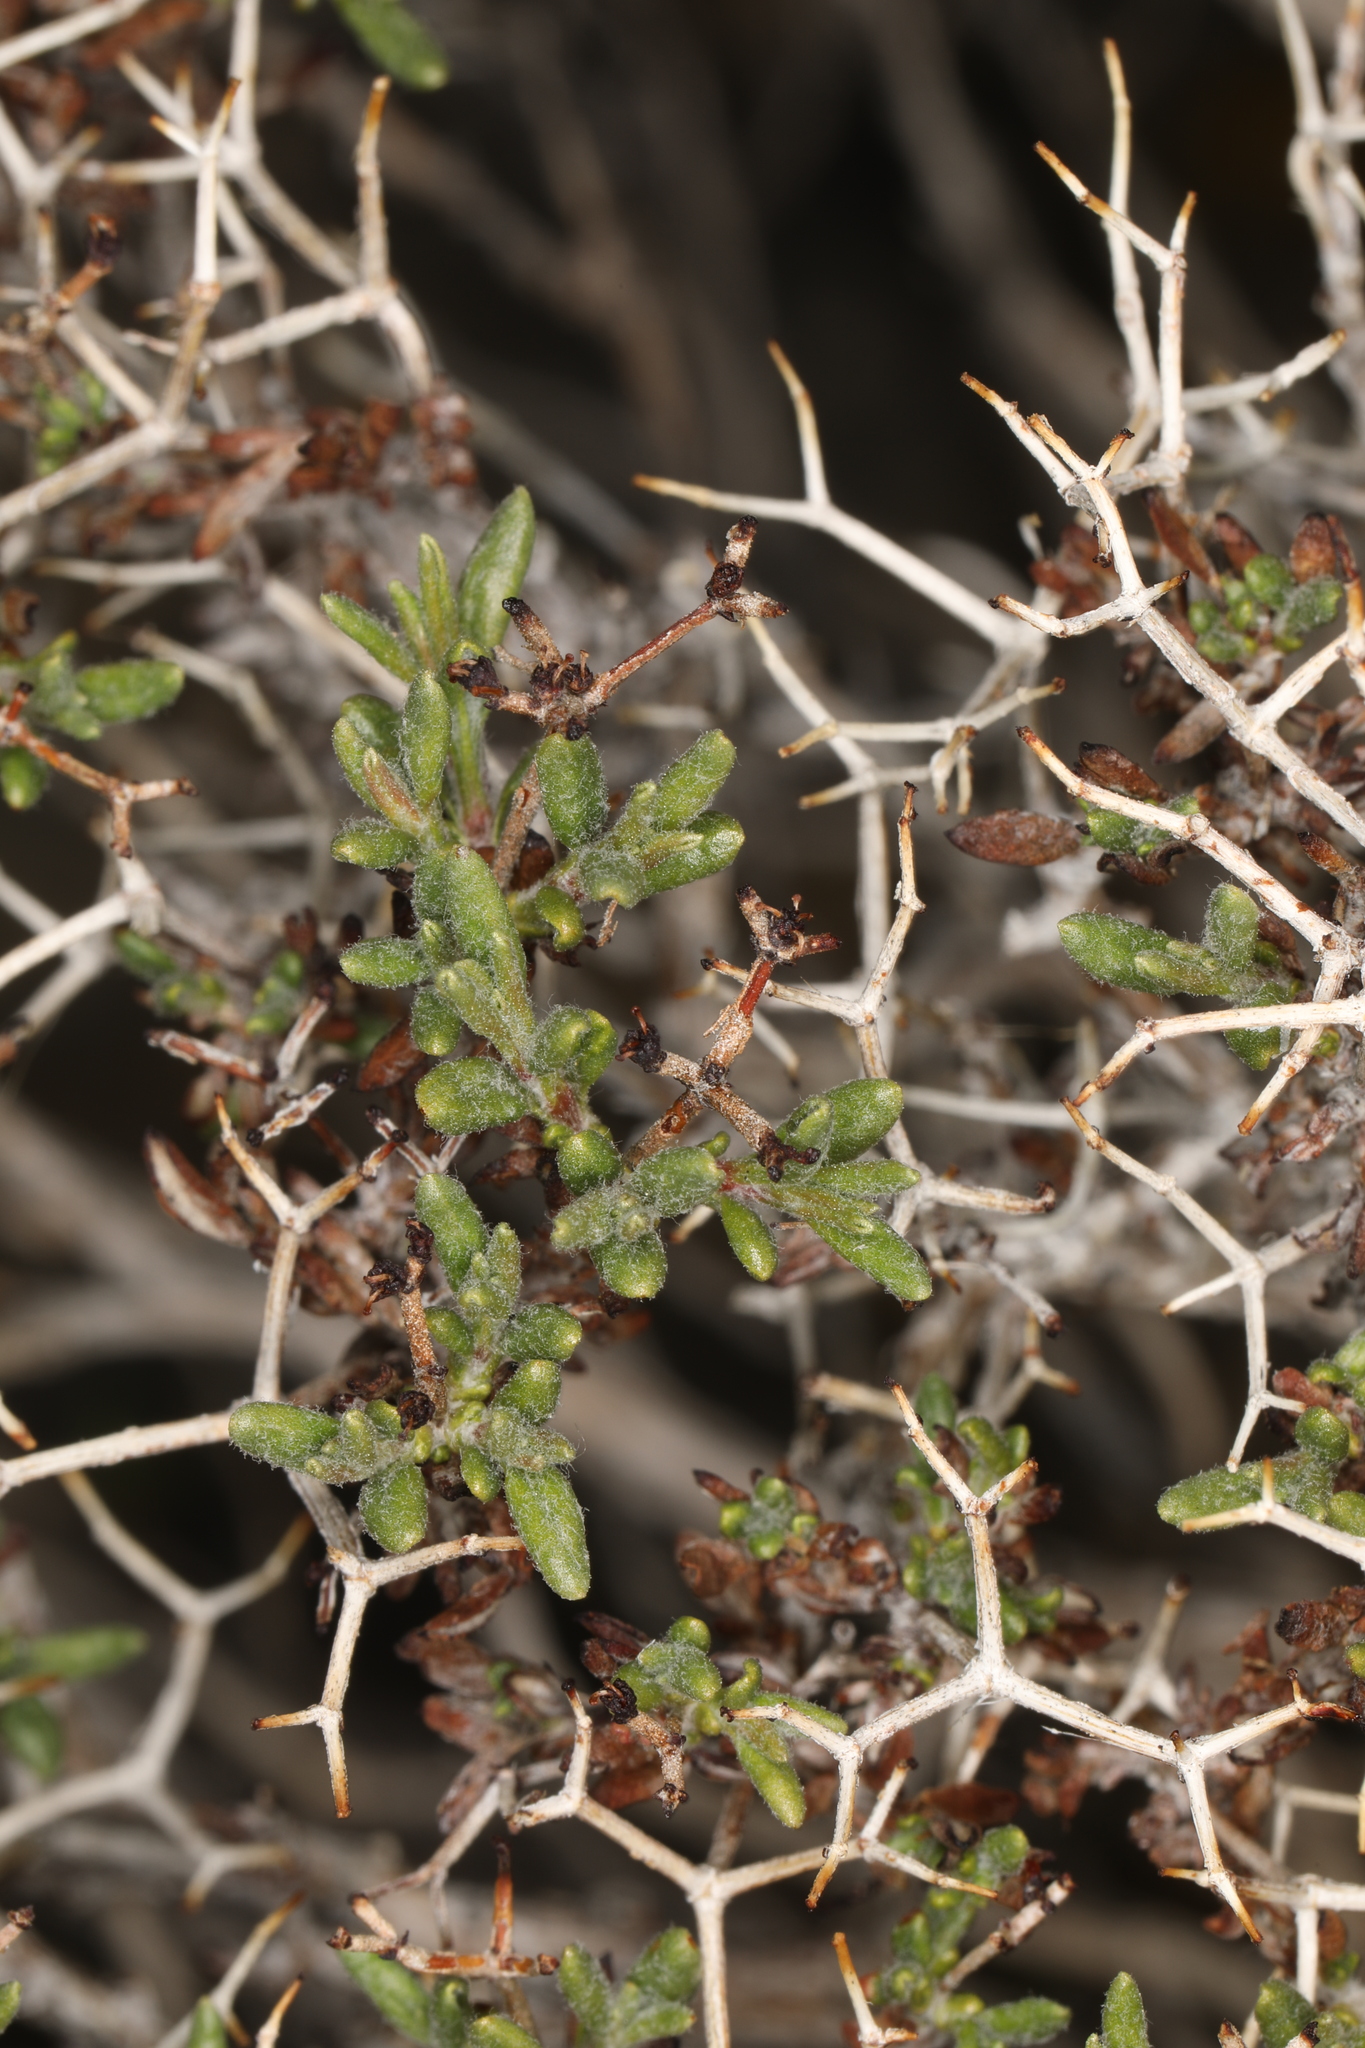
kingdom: Plantae
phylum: Tracheophyta
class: Magnoliopsida
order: Caryophyllales
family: Polygonaceae
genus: Eriogonum
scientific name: Eriogonum heermannii
